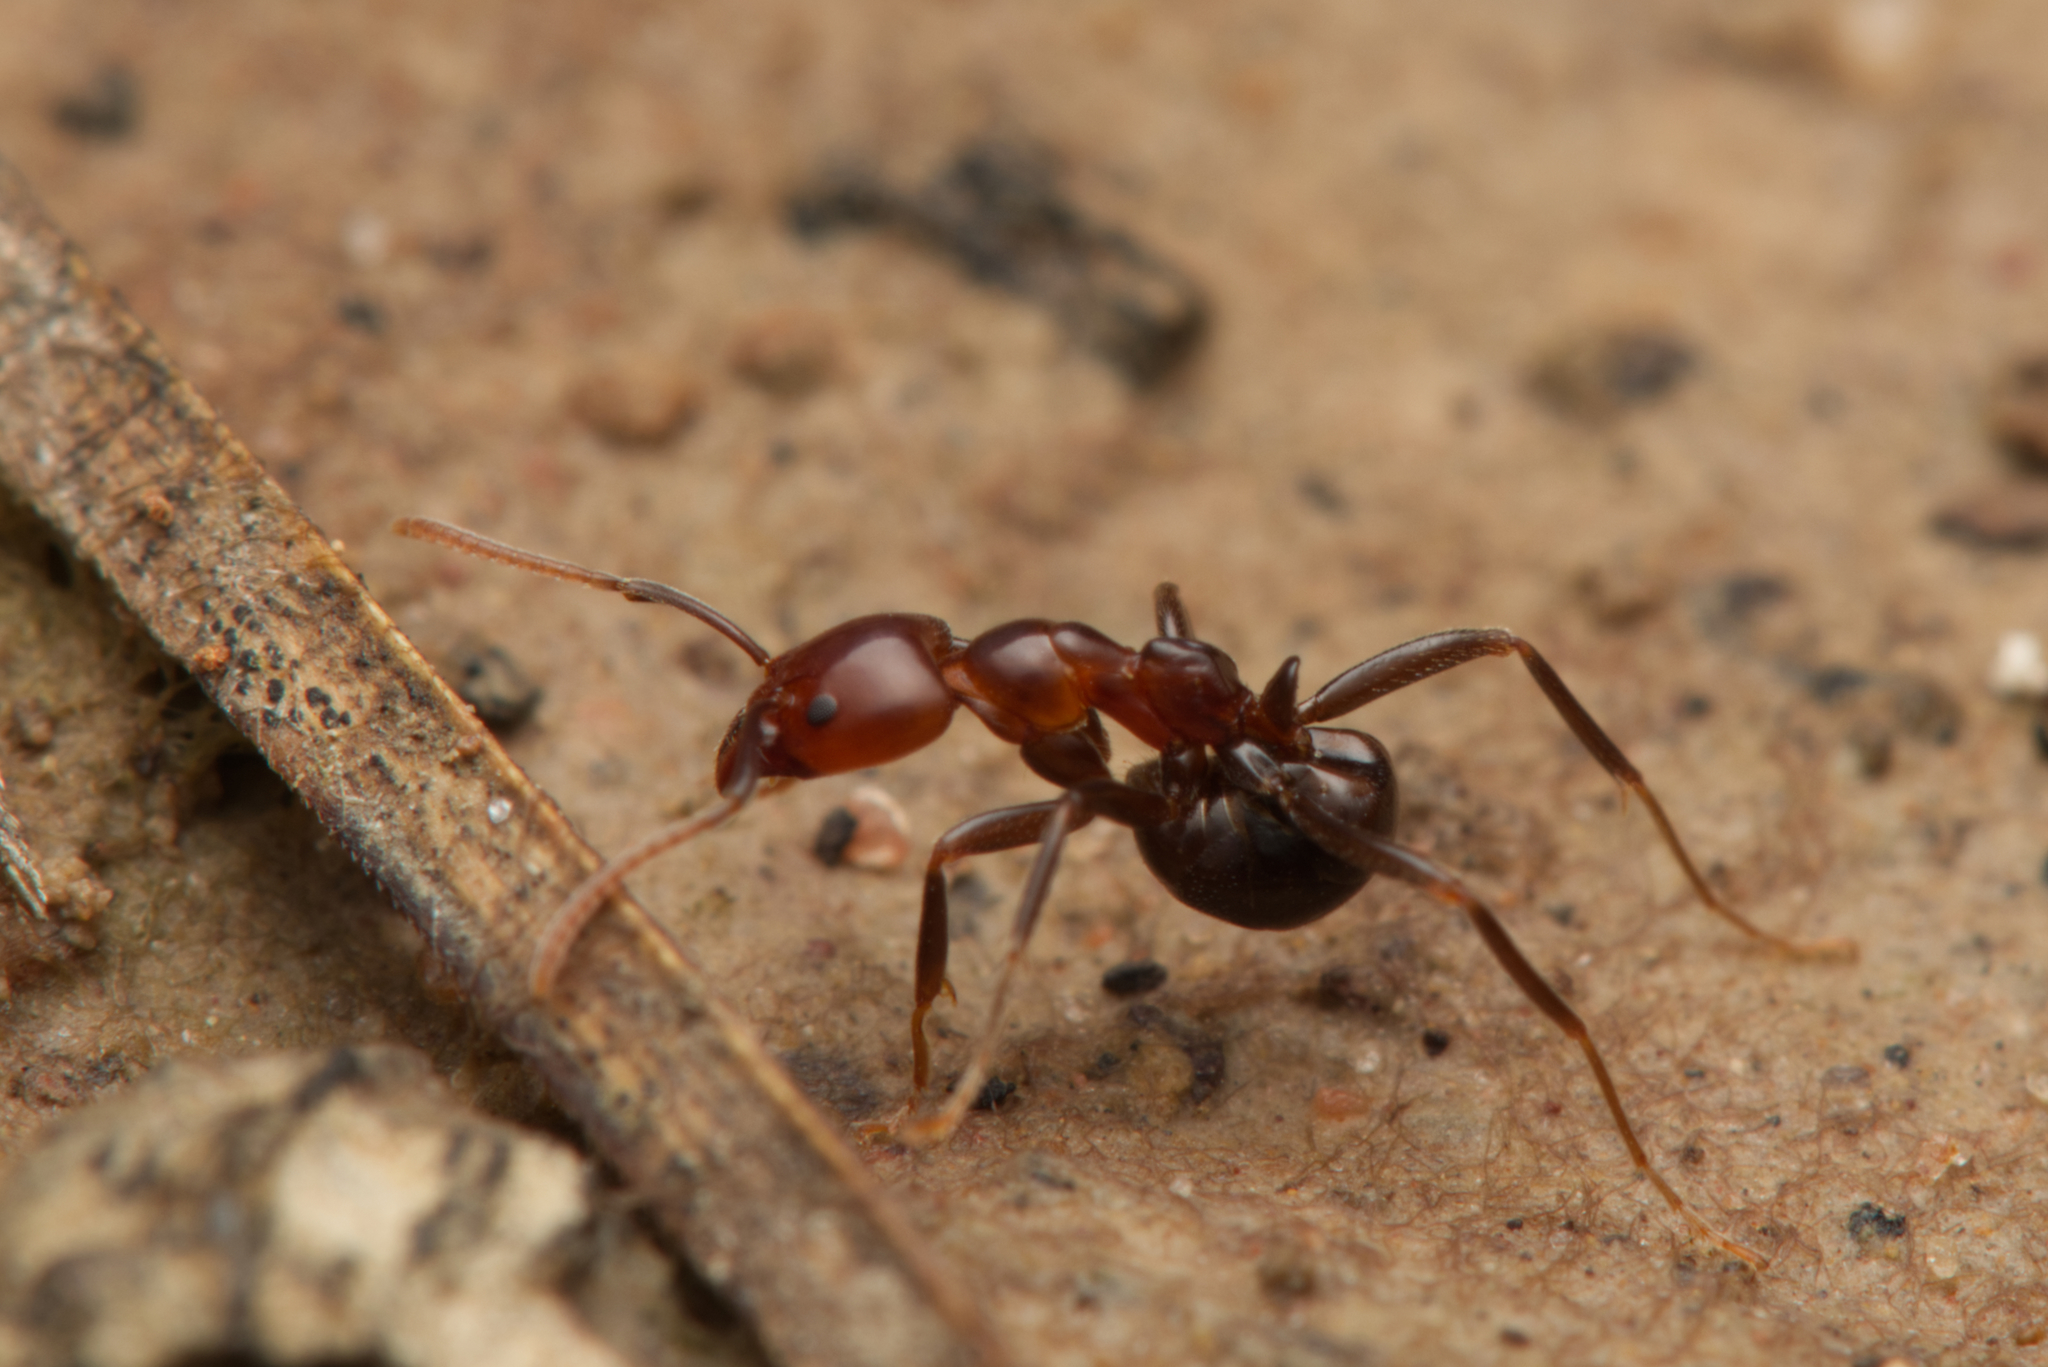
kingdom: Animalia
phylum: Arthropoda
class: Insecta
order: Hymenoptera
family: Formicidae
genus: Papyrius
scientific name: Papyrius nitidus
